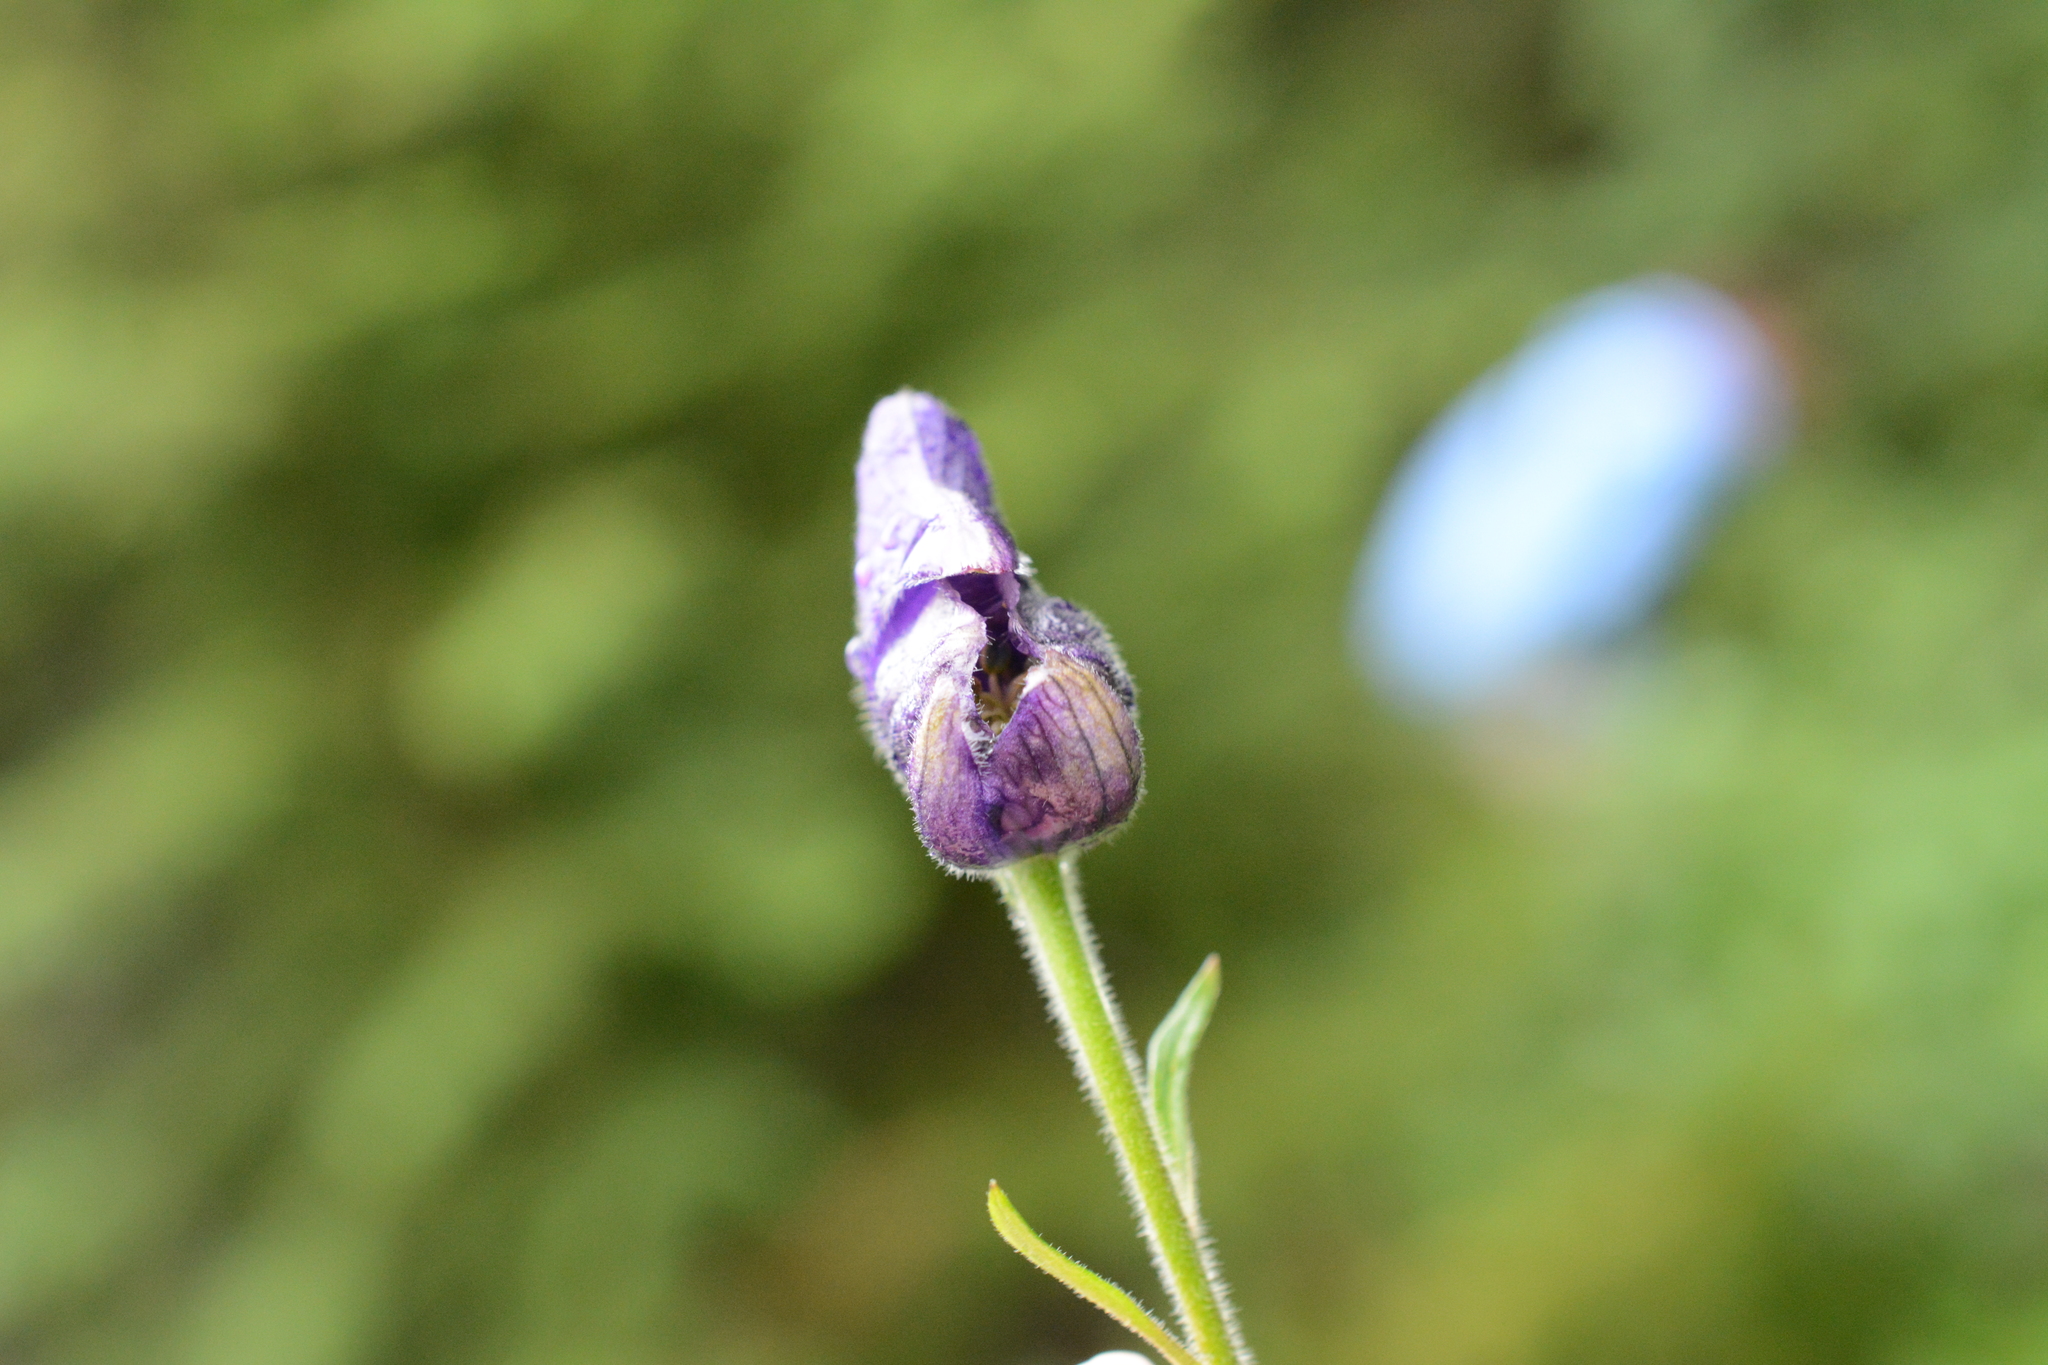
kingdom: Plantae
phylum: Tracheophyta
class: Magnoliopsida
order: Ranunculales
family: Ranunculaceae
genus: Aconitum
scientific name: Aconitum columbianum
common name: Columbia aconite
